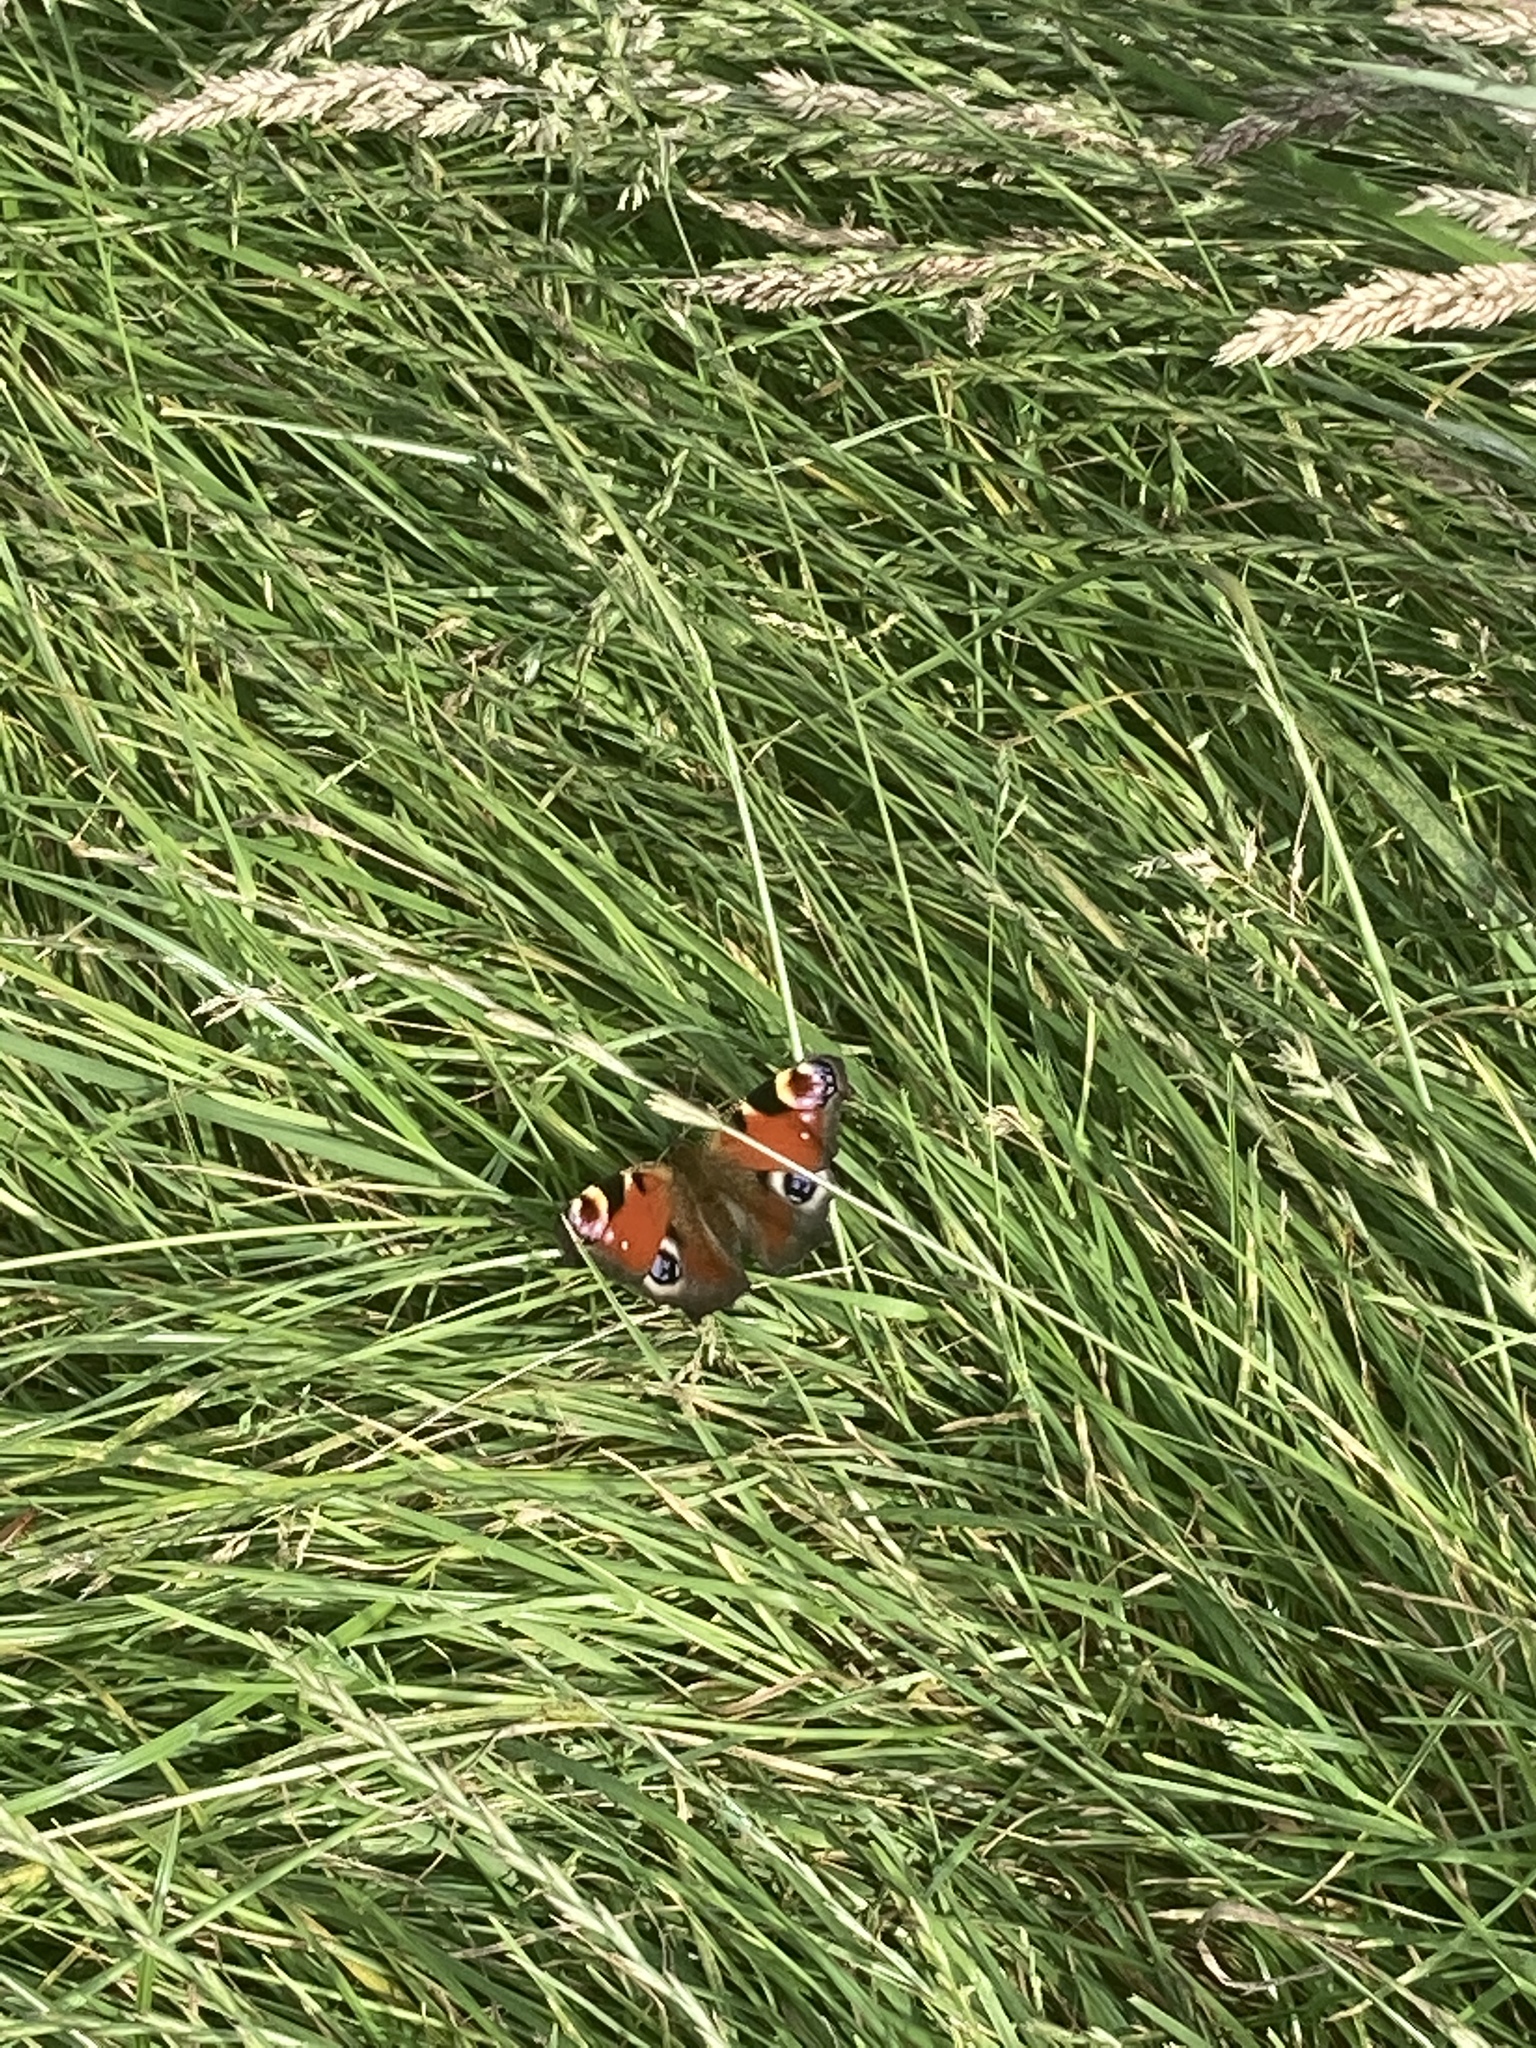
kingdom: Animalia
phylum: Arthropoda
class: Insecta
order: Lepidoptera
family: Nymphalidae
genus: Aglais
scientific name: Aglais io
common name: Peacock
